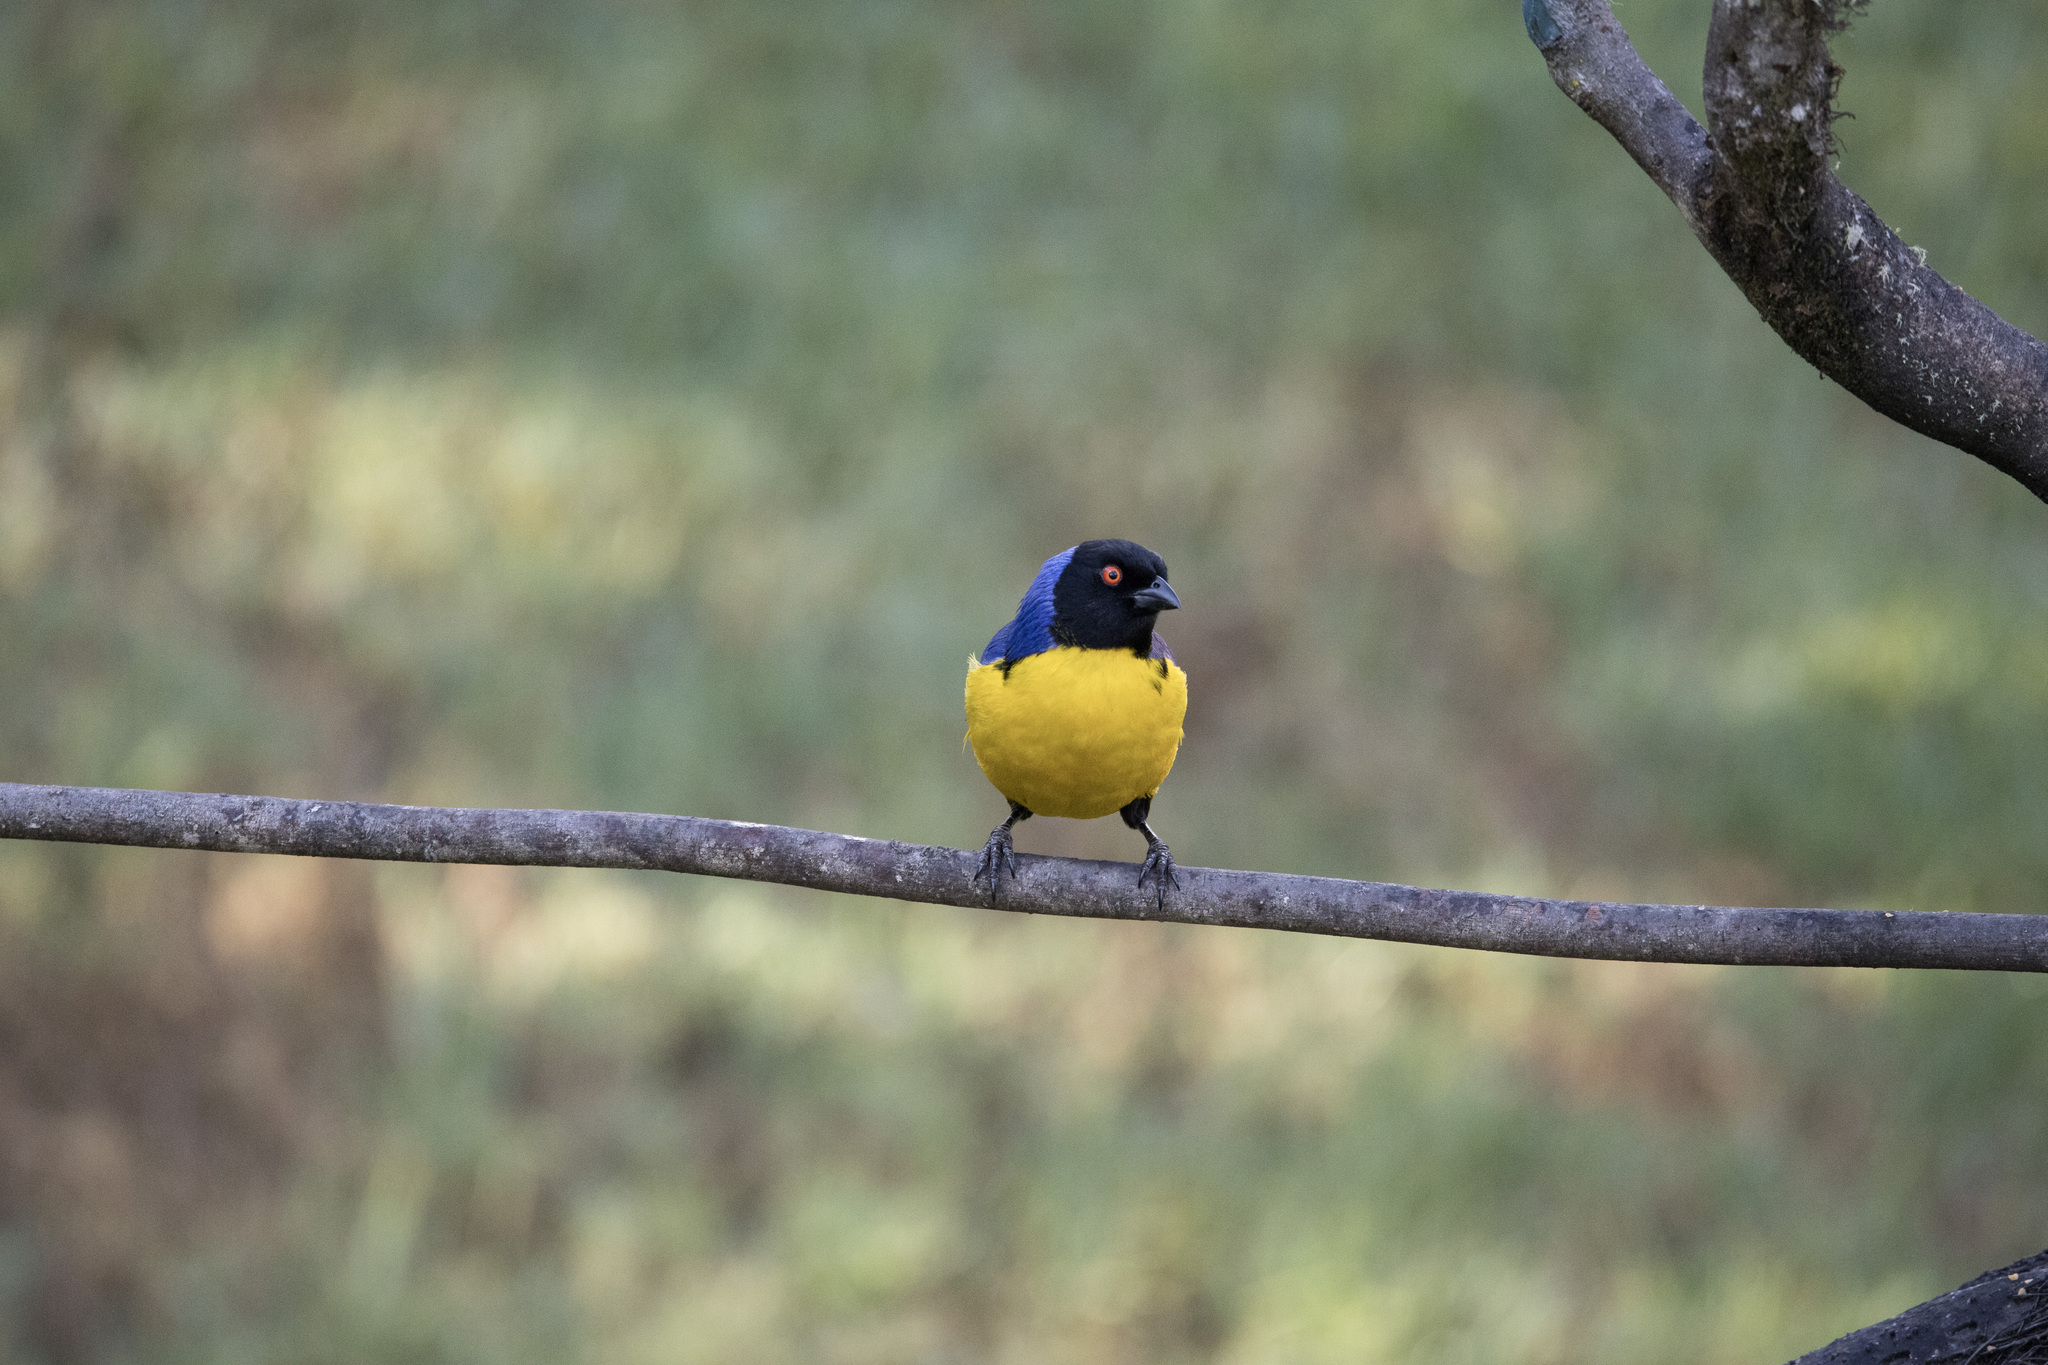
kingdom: Animalia
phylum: Chordata
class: Aves
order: Passeriformes
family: Thraupidae
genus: Buthraupis
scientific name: Buthraupis montana
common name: Hooded mountain tanager
